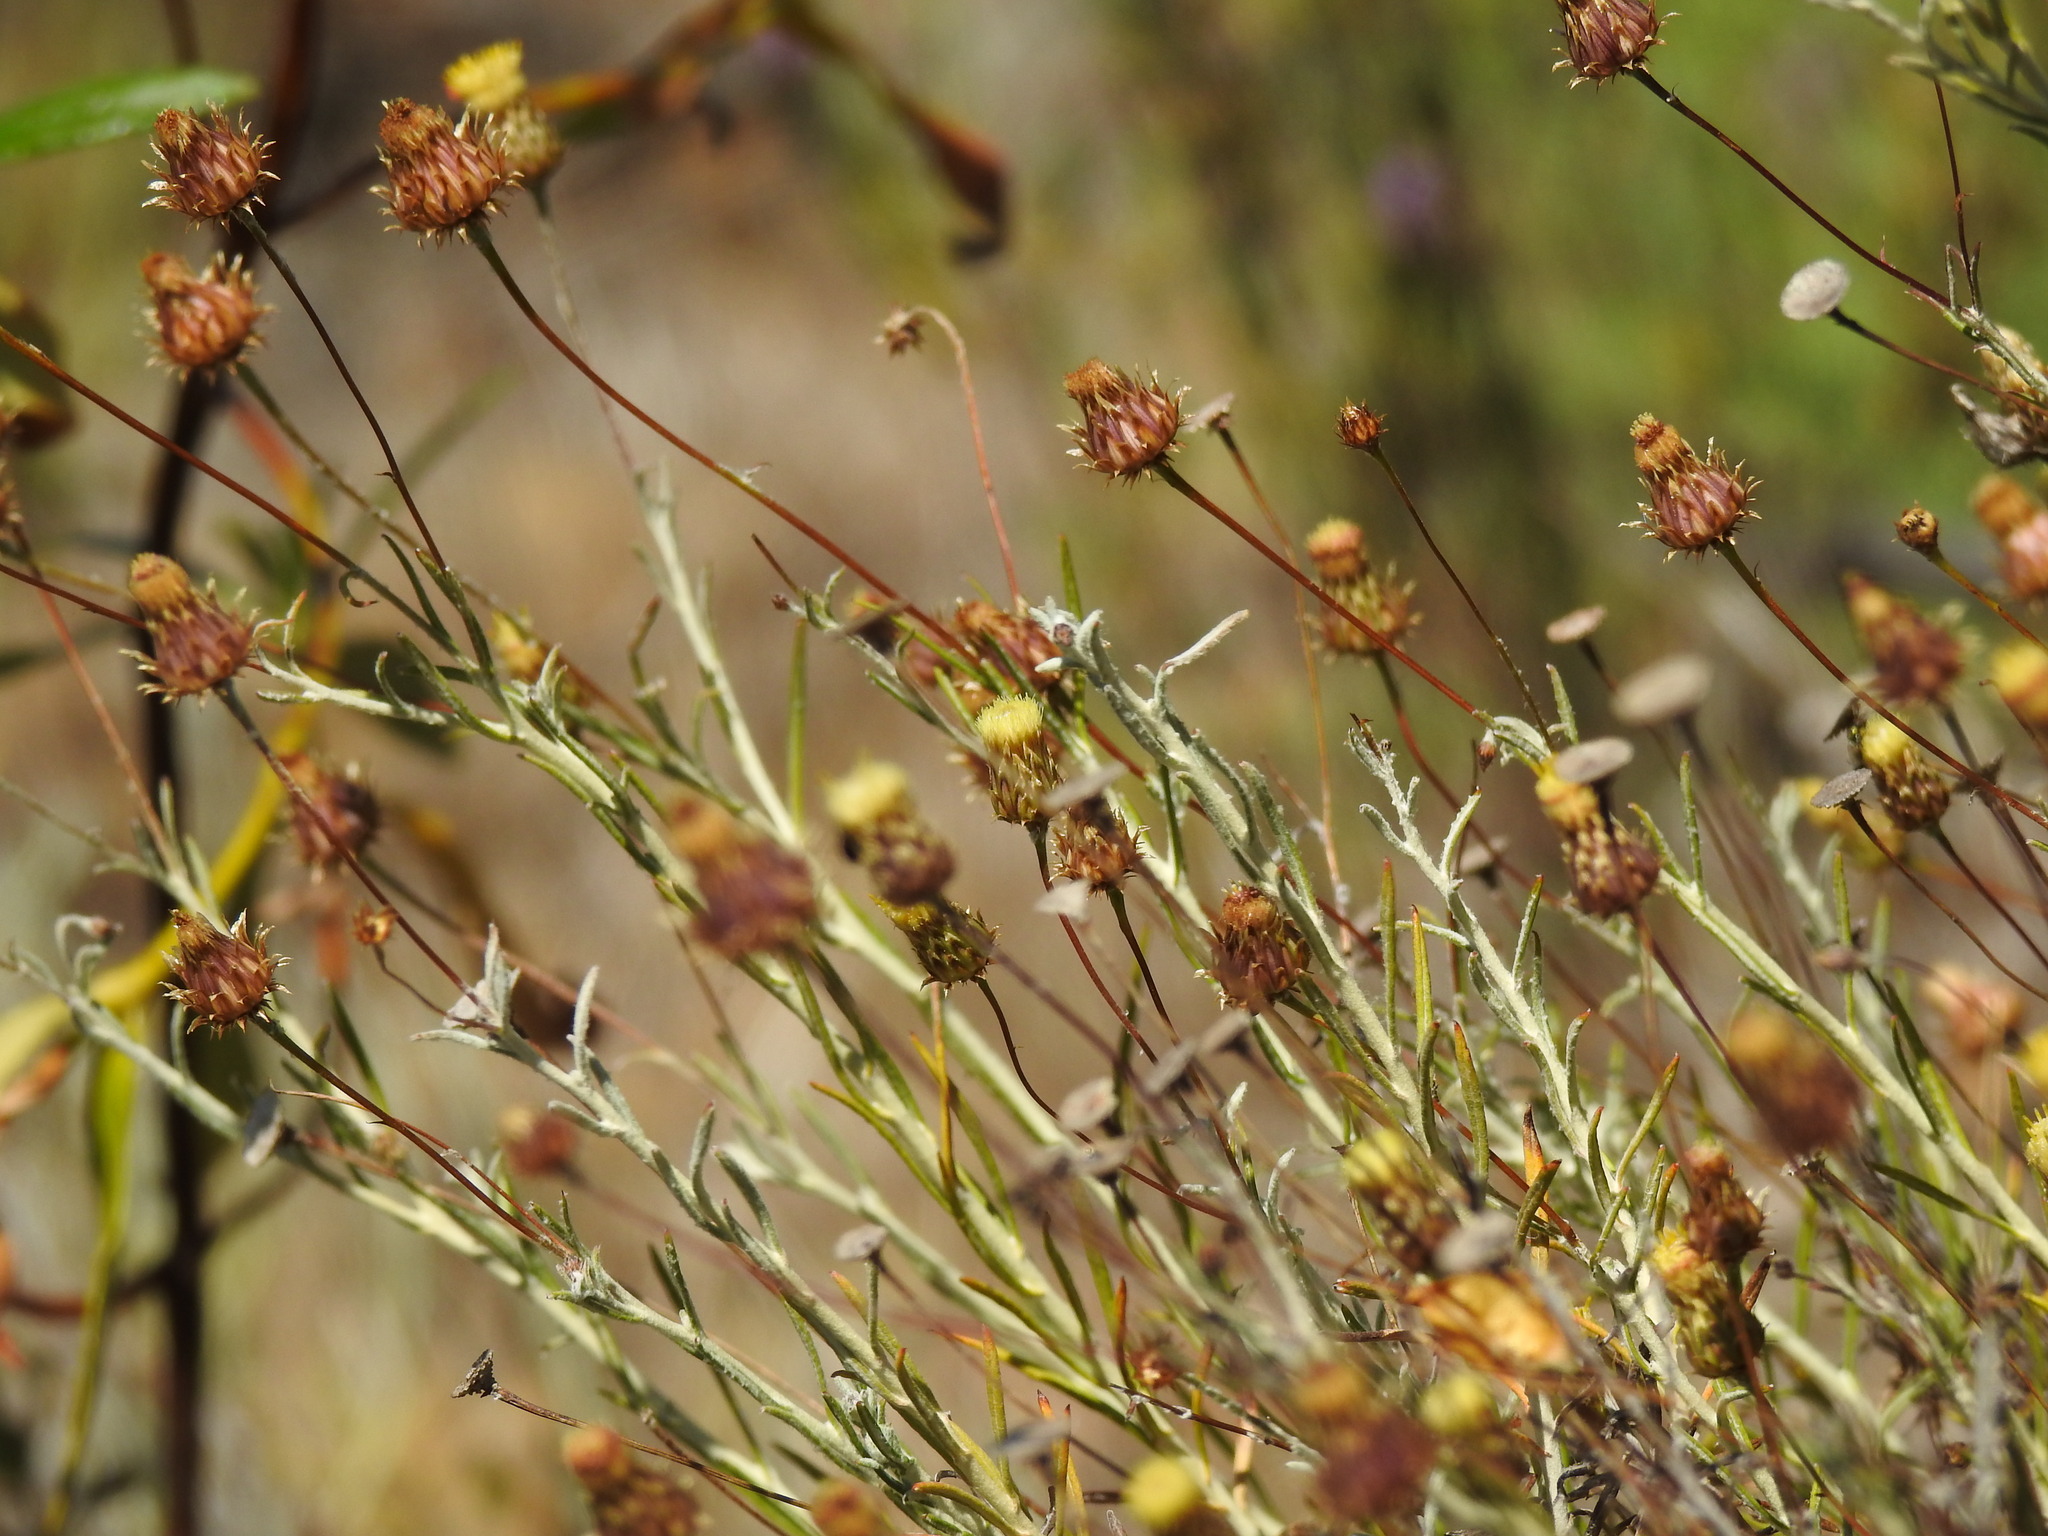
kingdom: Plantae
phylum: Tracheophyta
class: Magnoliopsida
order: Asterales
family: Asteraceae
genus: Phagnalon
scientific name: Phagnalon saxatile
